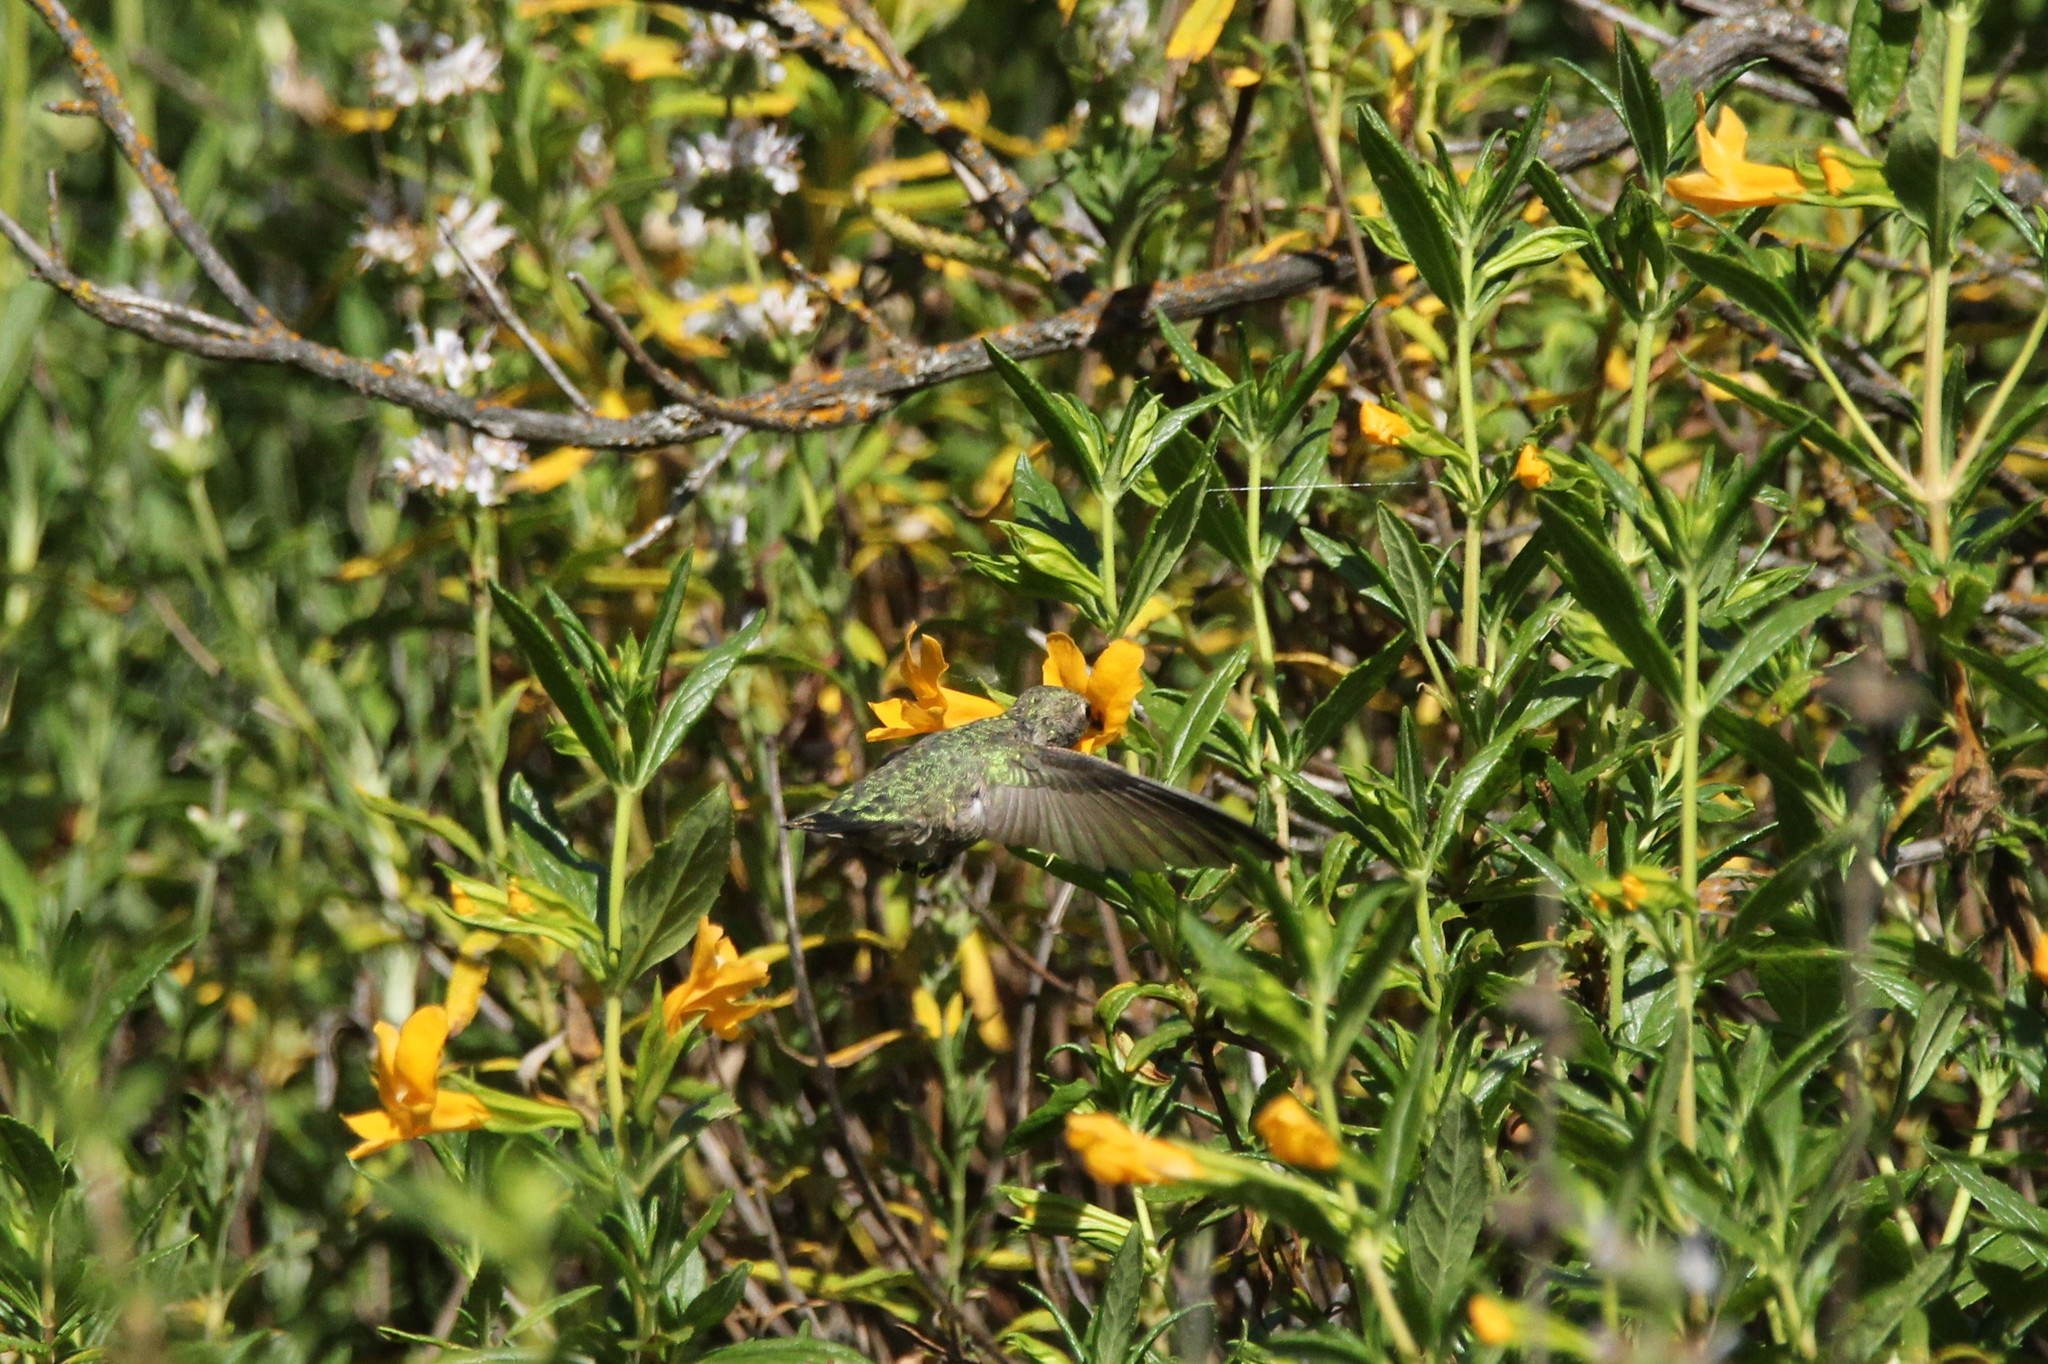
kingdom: Animalia
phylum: Chordata
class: Aves
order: Apodiformes
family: Trochilidae
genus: Calypte
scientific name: Calypte anna
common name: Anna's hummingbird
